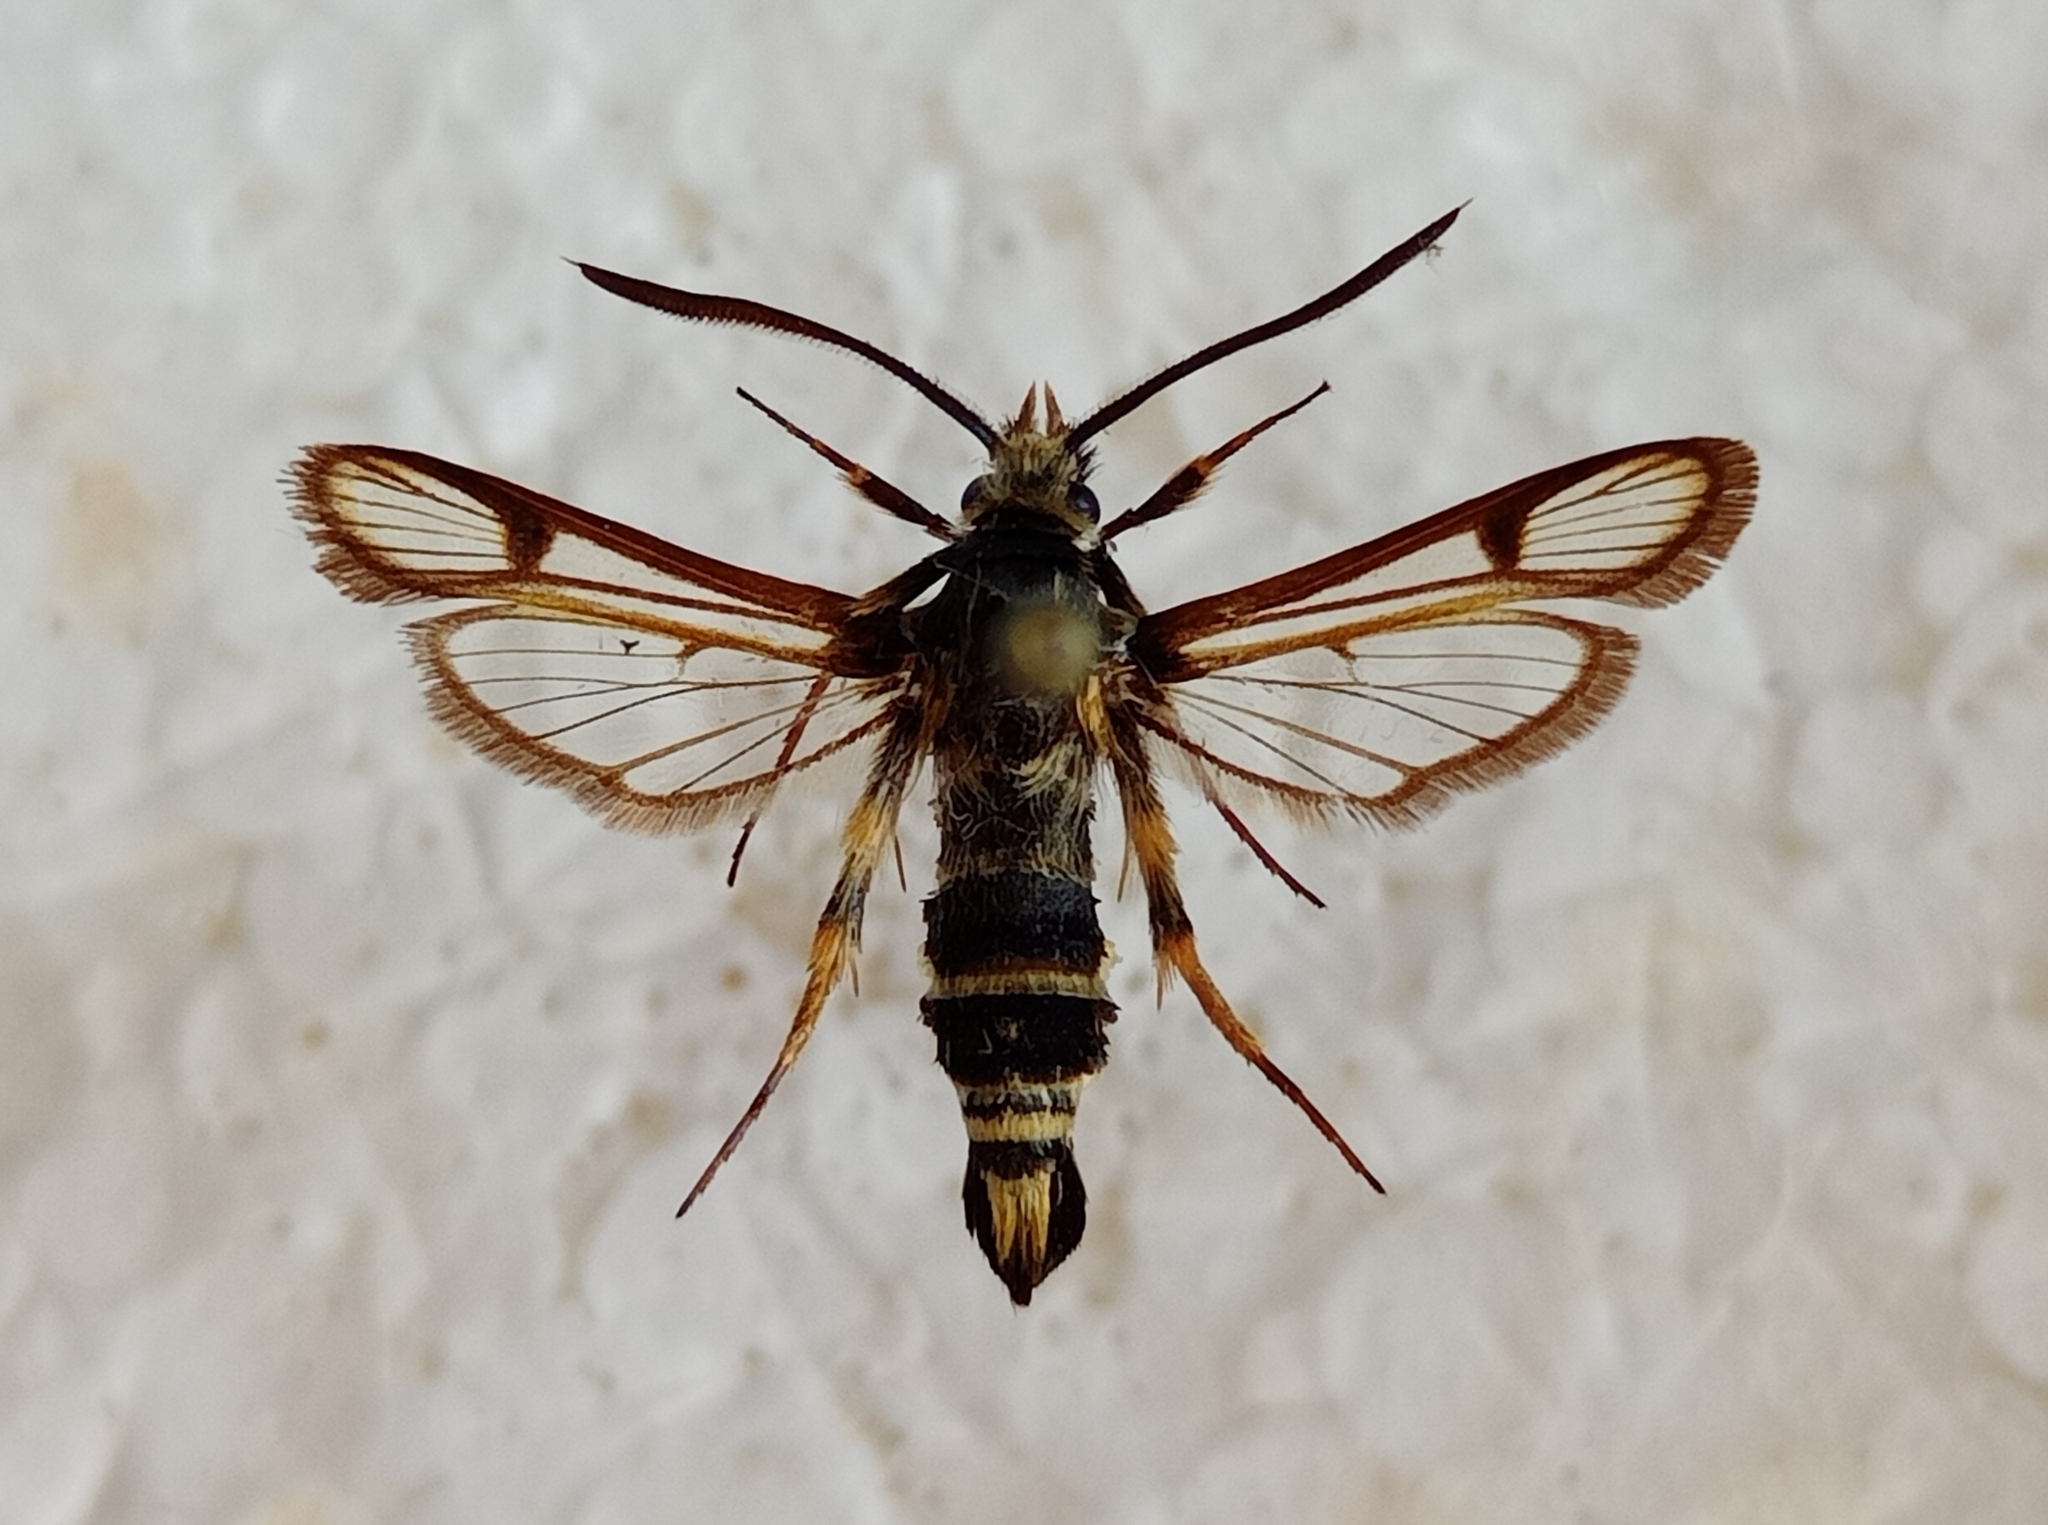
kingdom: Animalia
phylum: Arthropoda
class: Insecta
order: Lepidoptera
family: Sesiidae
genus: Bembecia
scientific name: Bembecia puella
